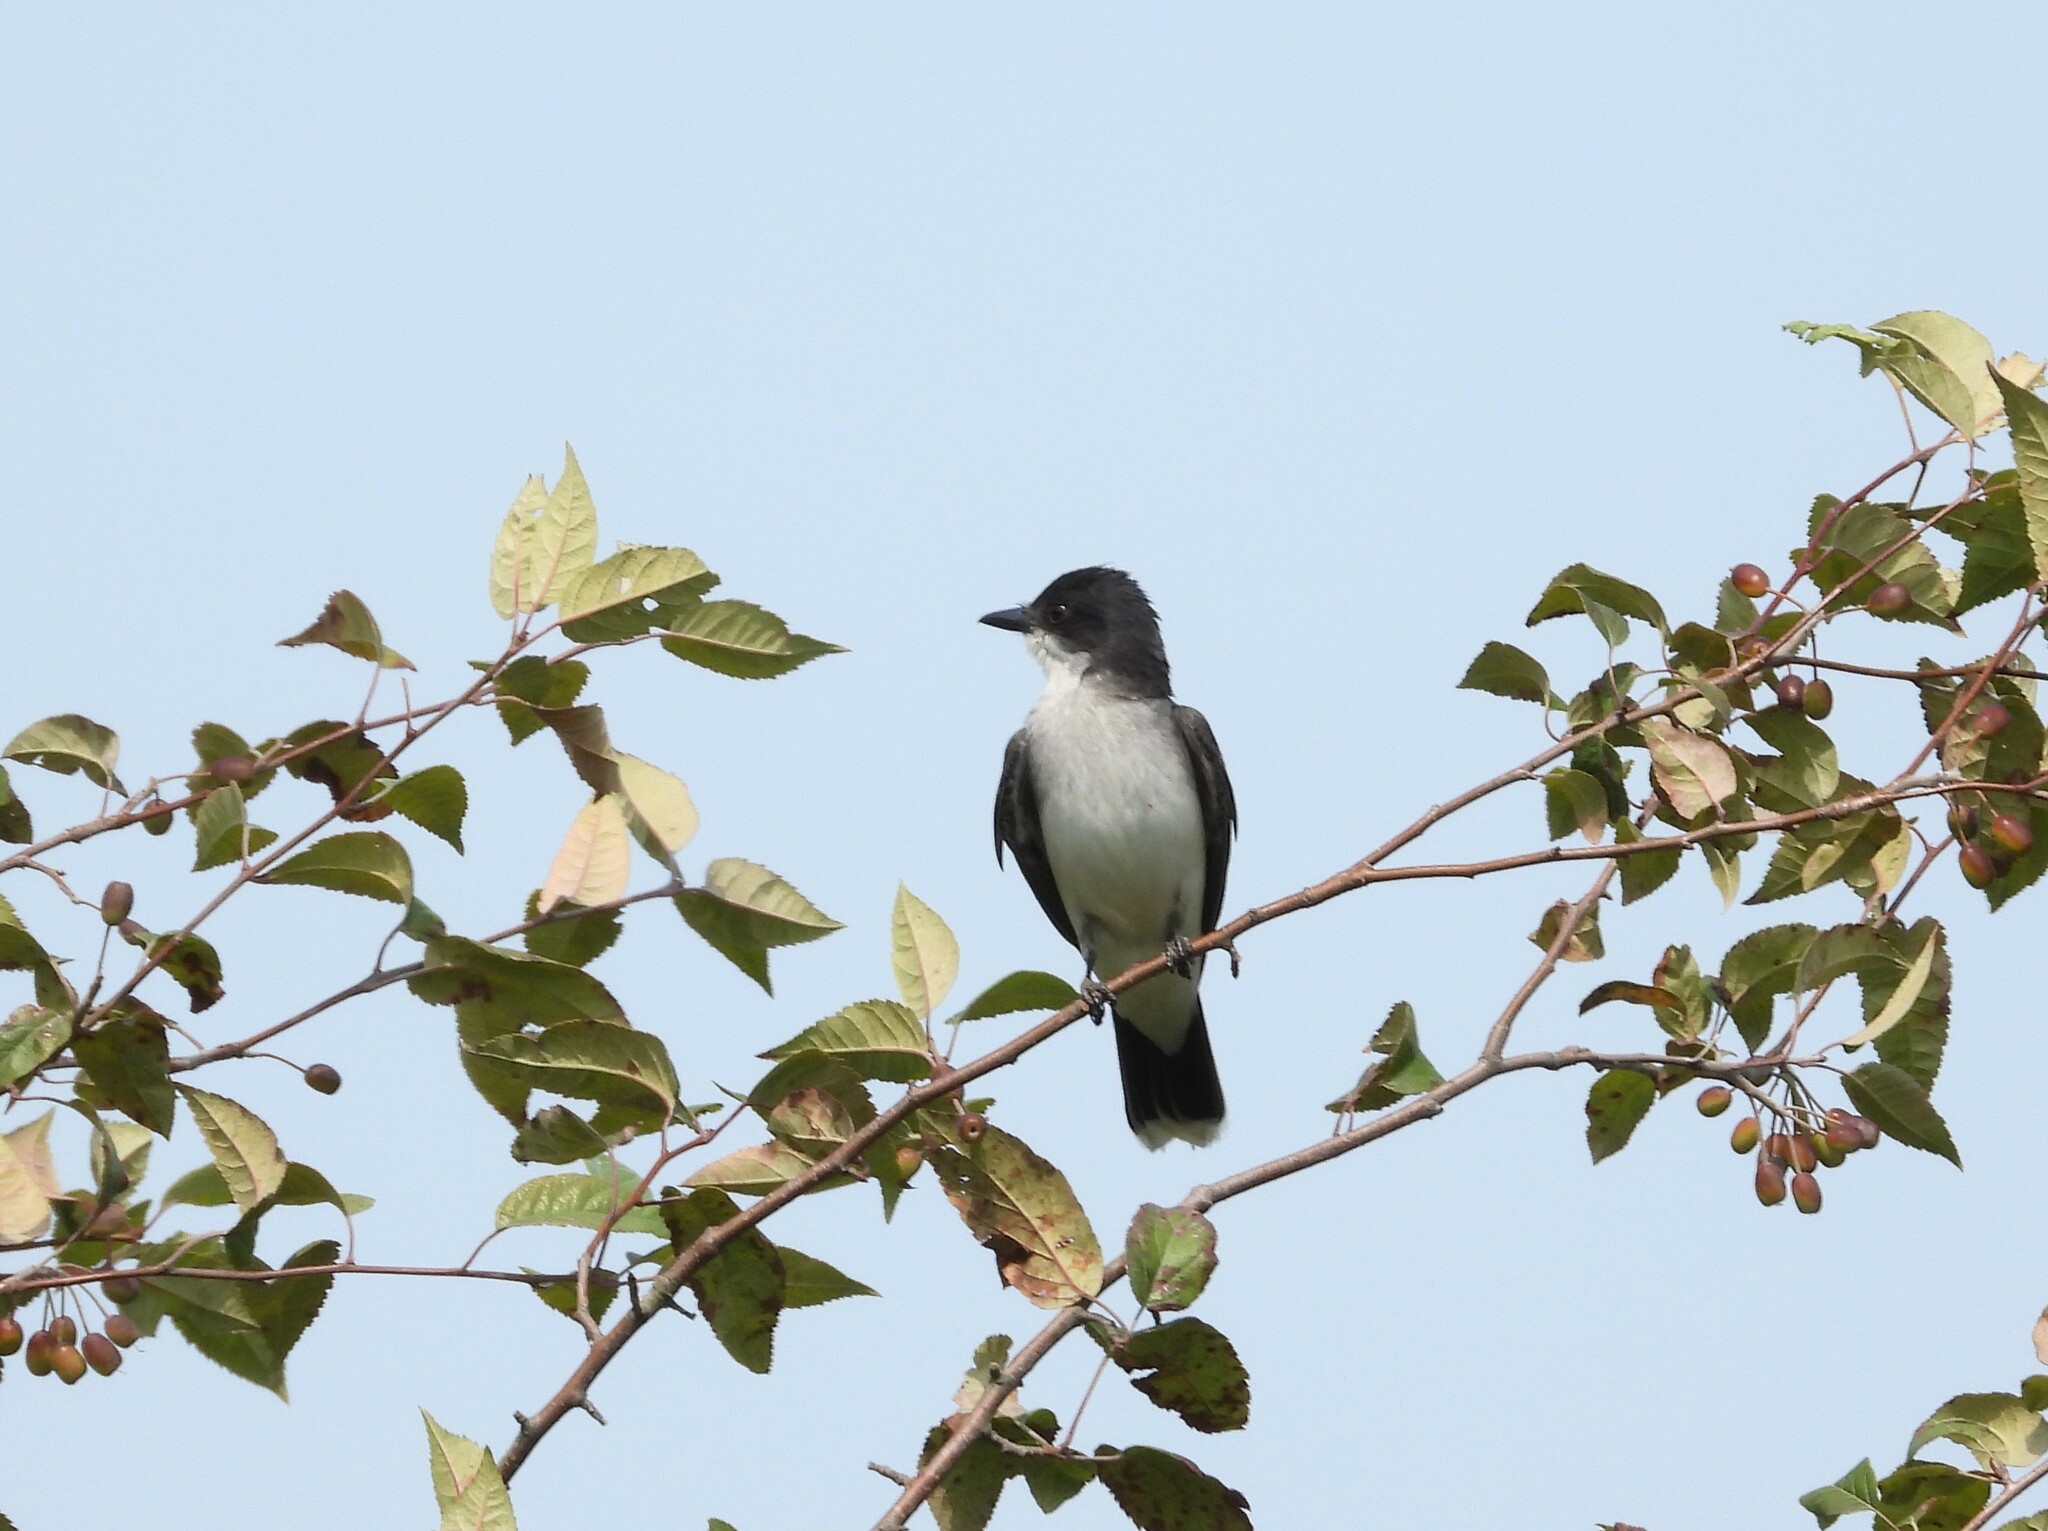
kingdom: Animalia
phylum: Chordata
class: Aves
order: Passeriformes
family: Tyrannidae
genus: Tyrannus
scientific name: Tyrannus tyrannus
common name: Eastern kingbird
